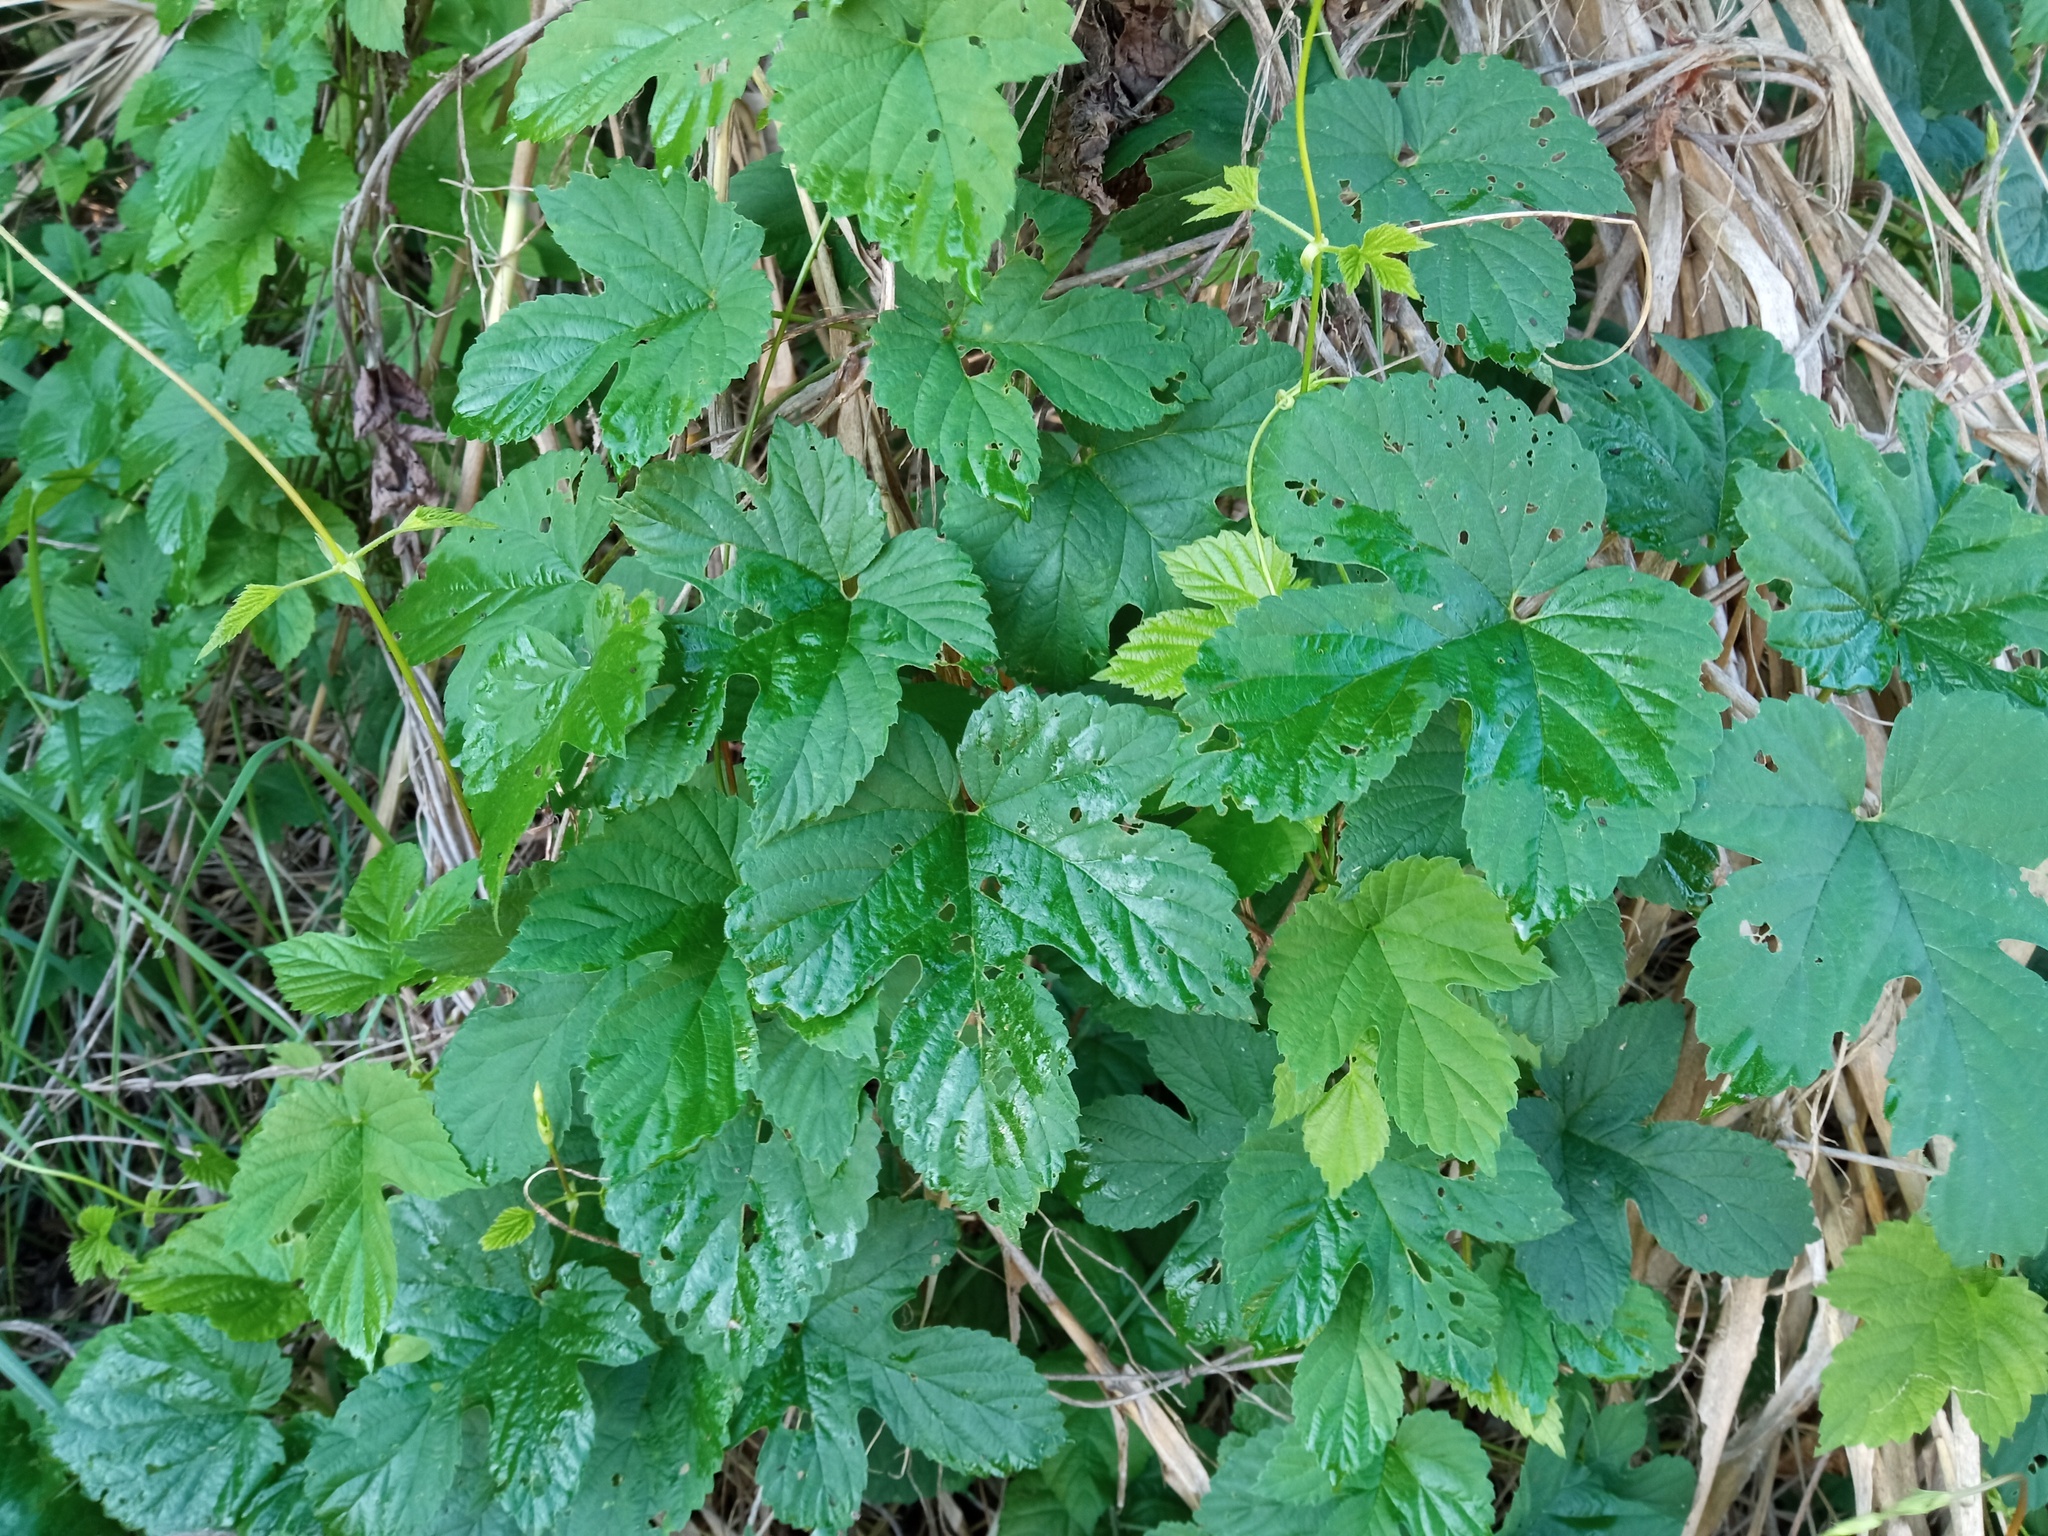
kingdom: Plantae
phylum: Tracheophyta
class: Magnoliopsida
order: Rosales
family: Cannabaceae
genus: Humulus
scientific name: Humulus lupulus
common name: Hop
